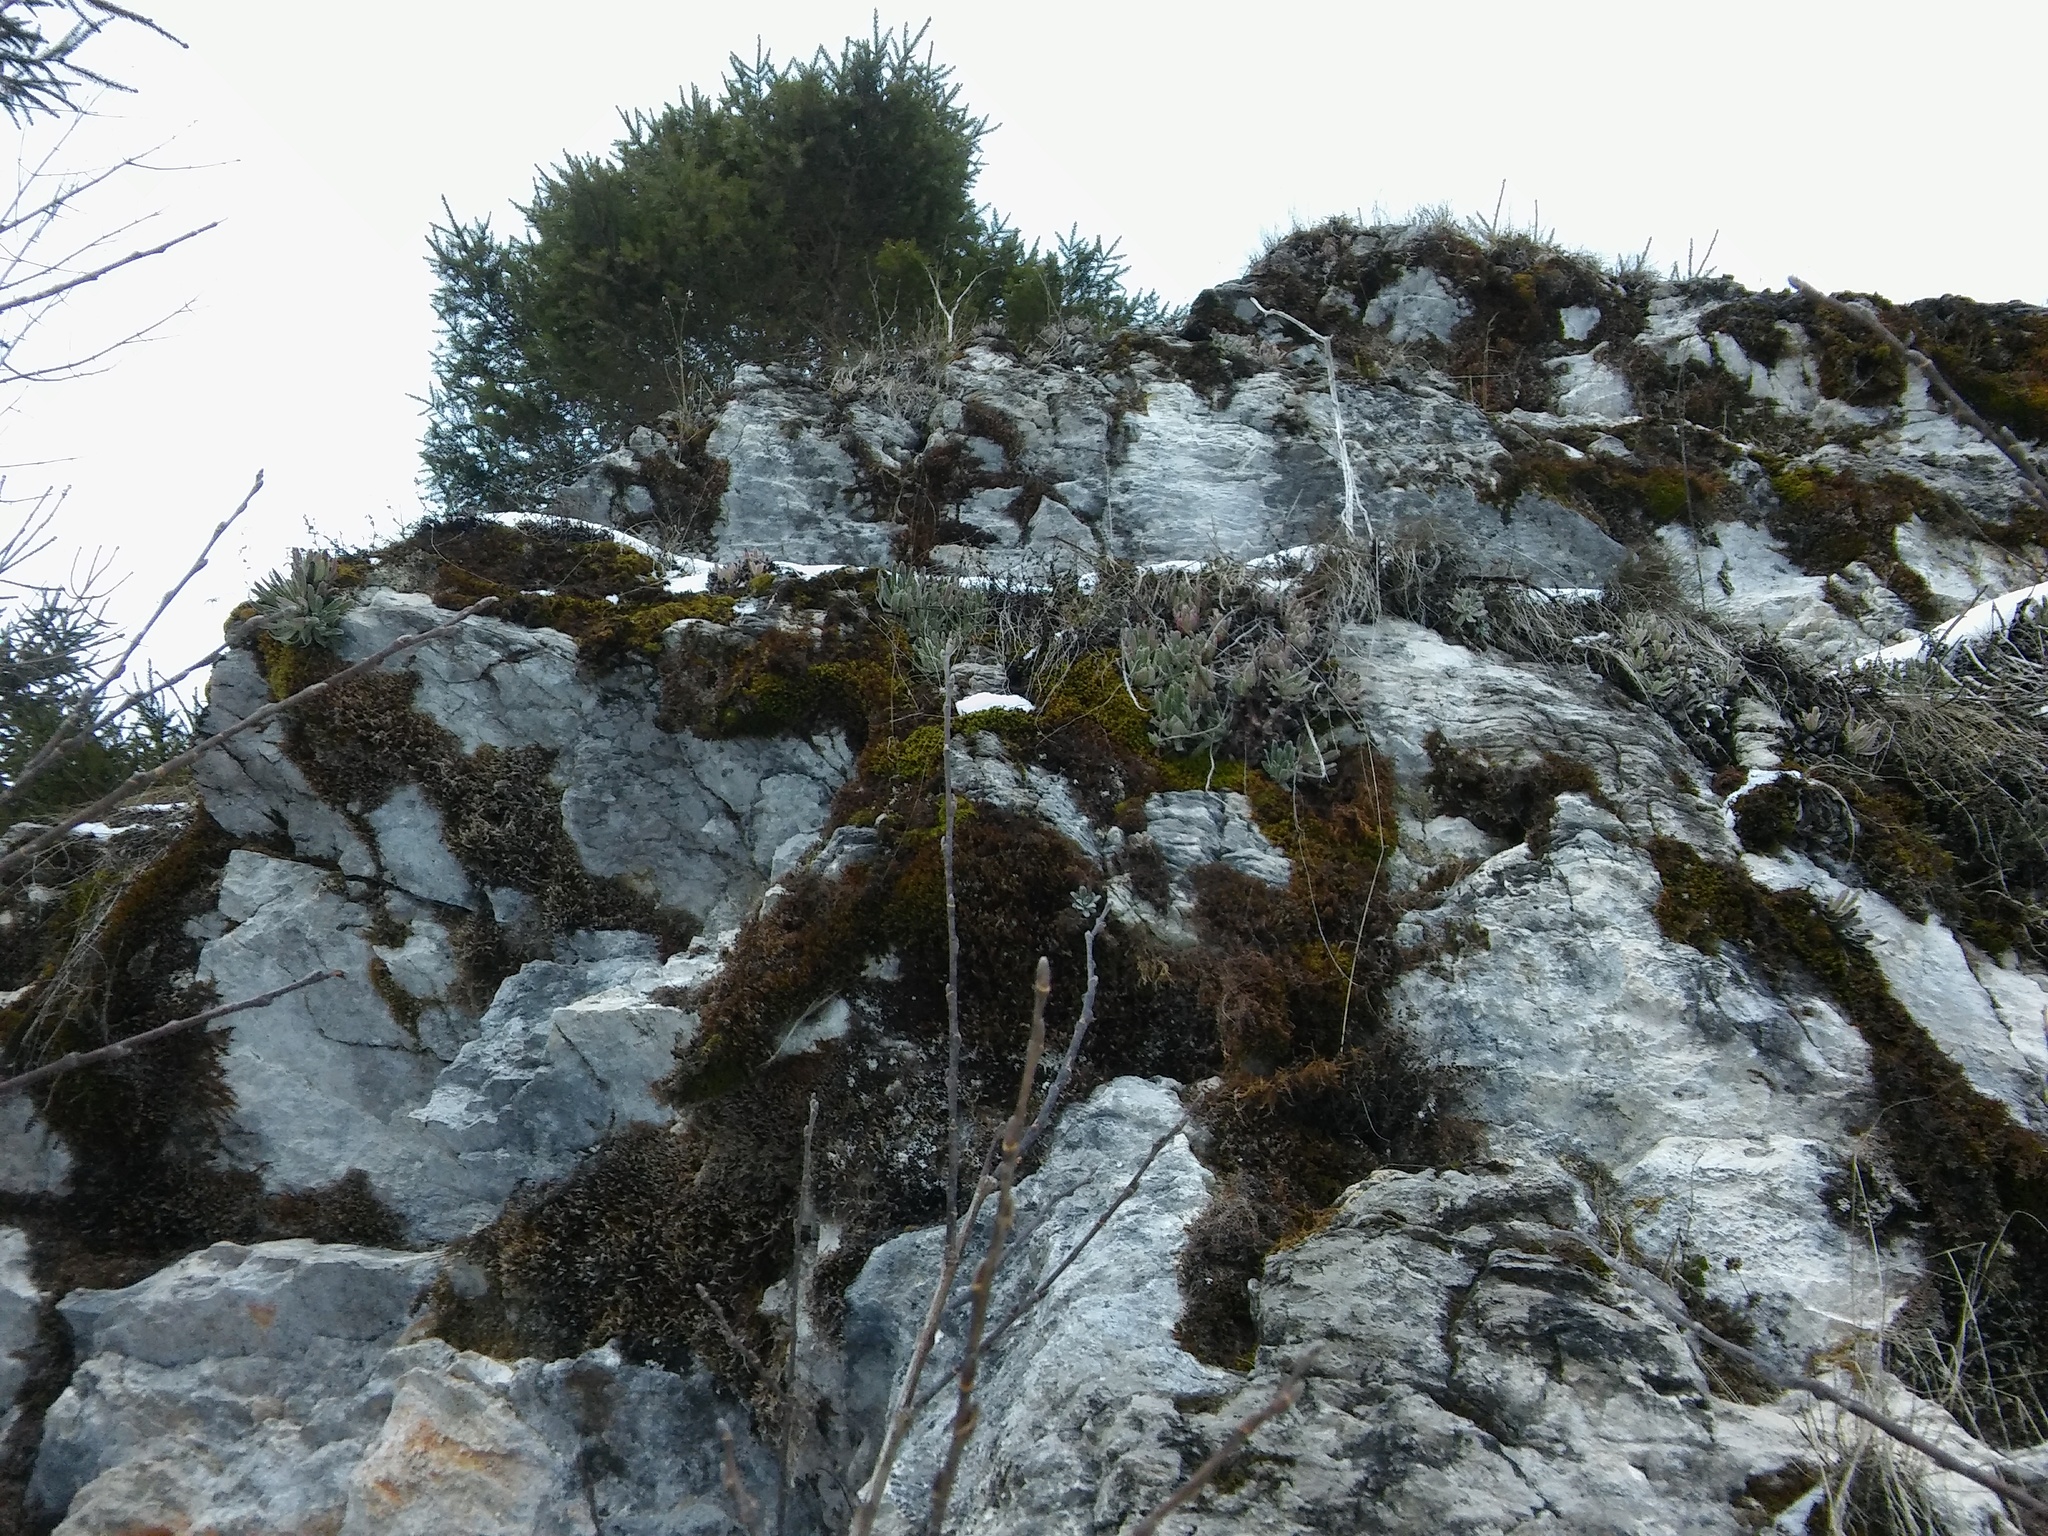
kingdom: Plantae
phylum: Tracheophyta
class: Magnoliopsida
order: Saxifragales
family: Saxifragaceae
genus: Saxifraga
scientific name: Saxifraga hostii
